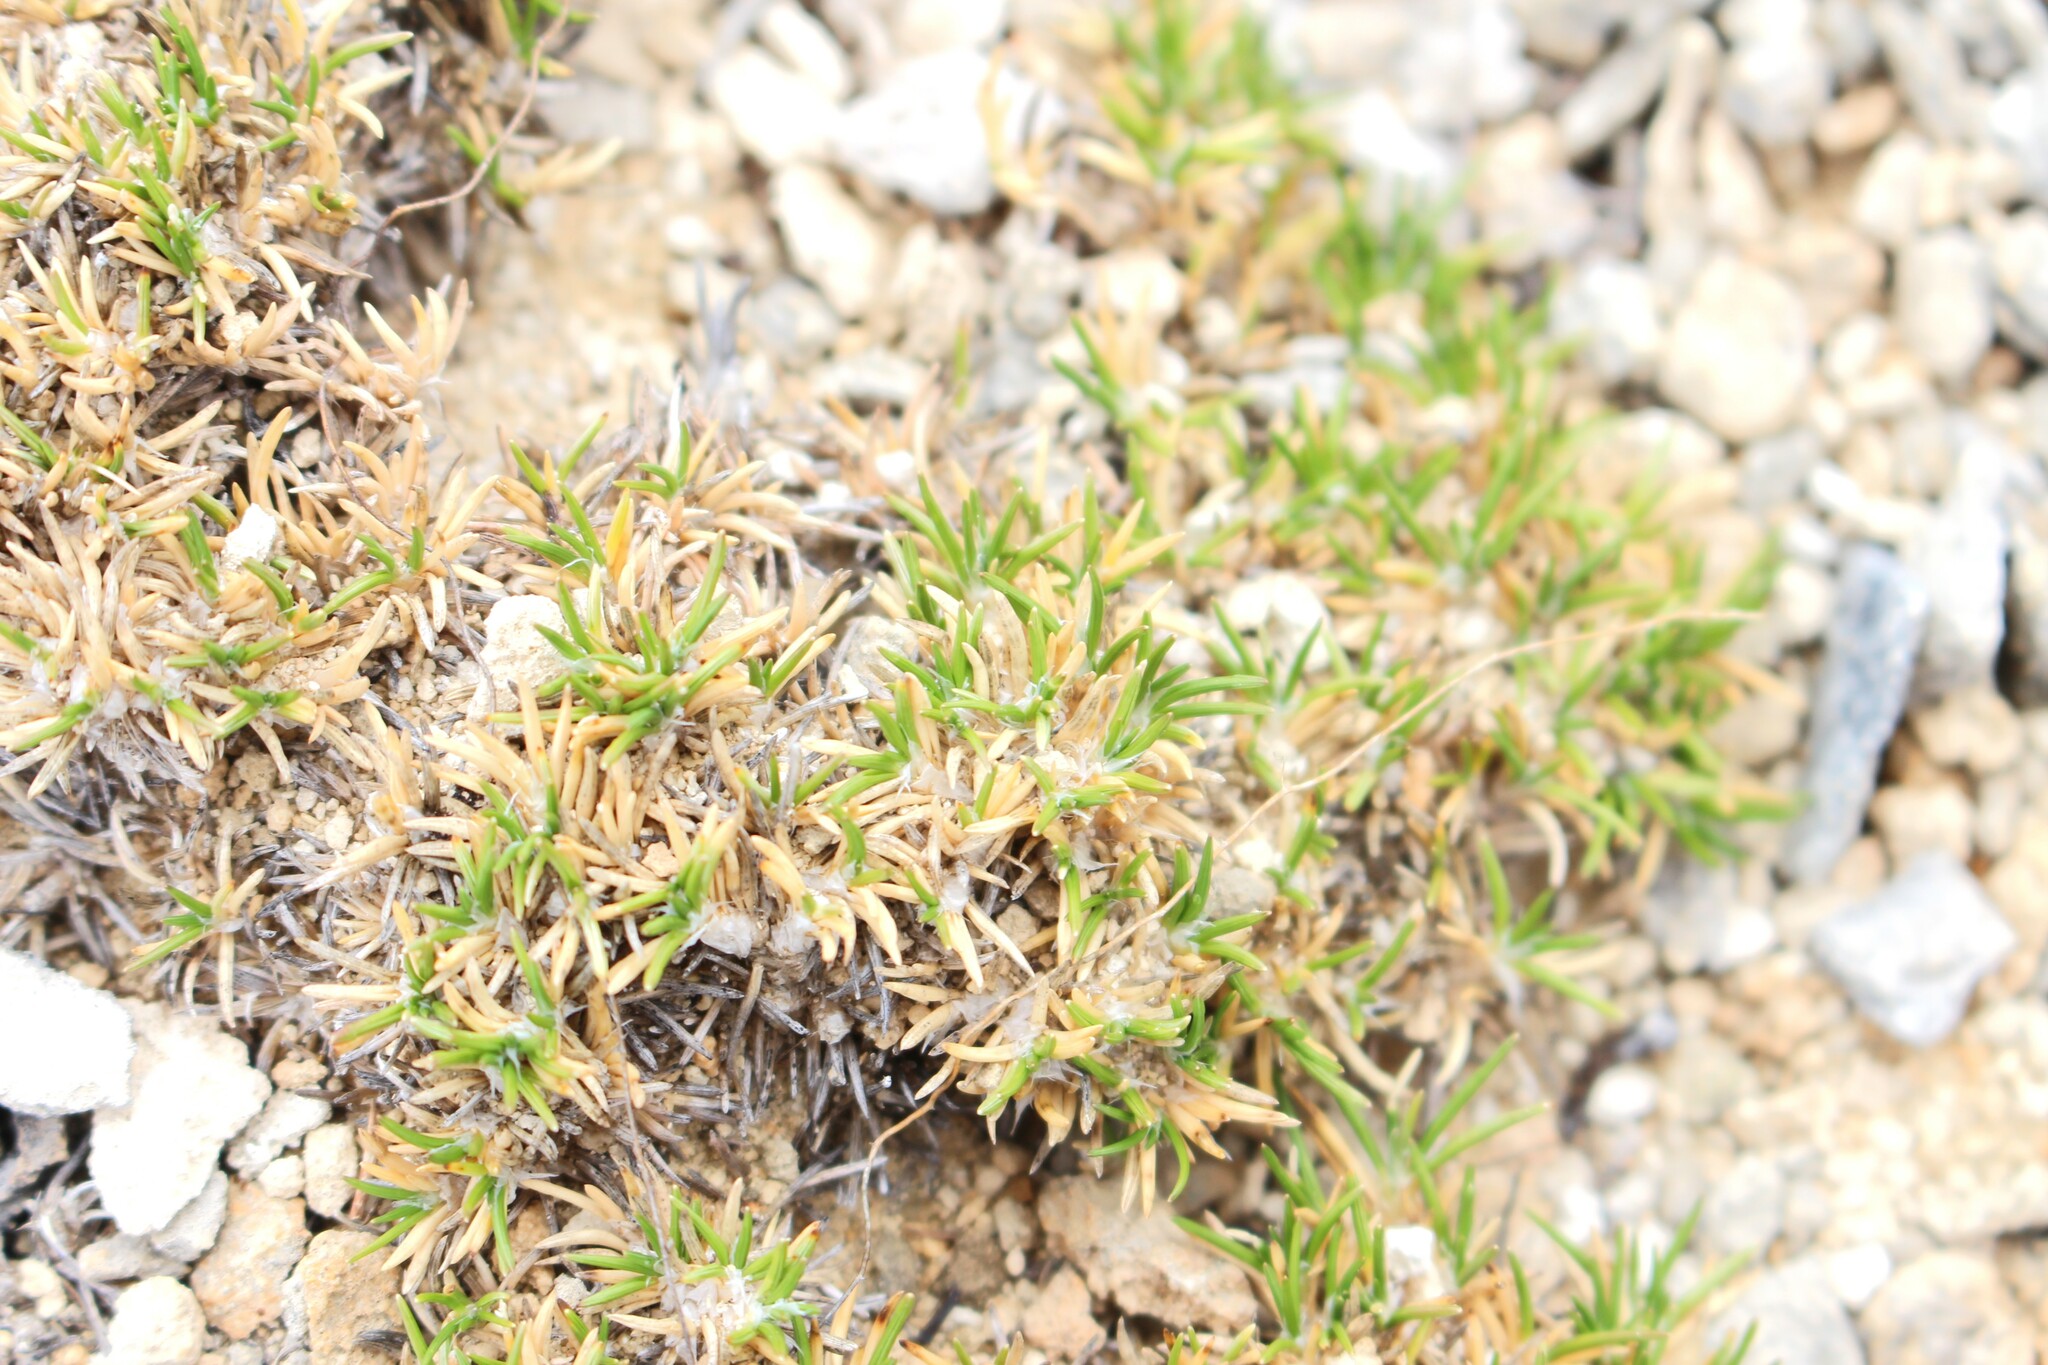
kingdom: Plantae
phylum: Tracheophyta
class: Liliopsida
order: Poales
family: Poaceae
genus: Poa
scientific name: Poa acicularifolia
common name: Limestone cushion poa
